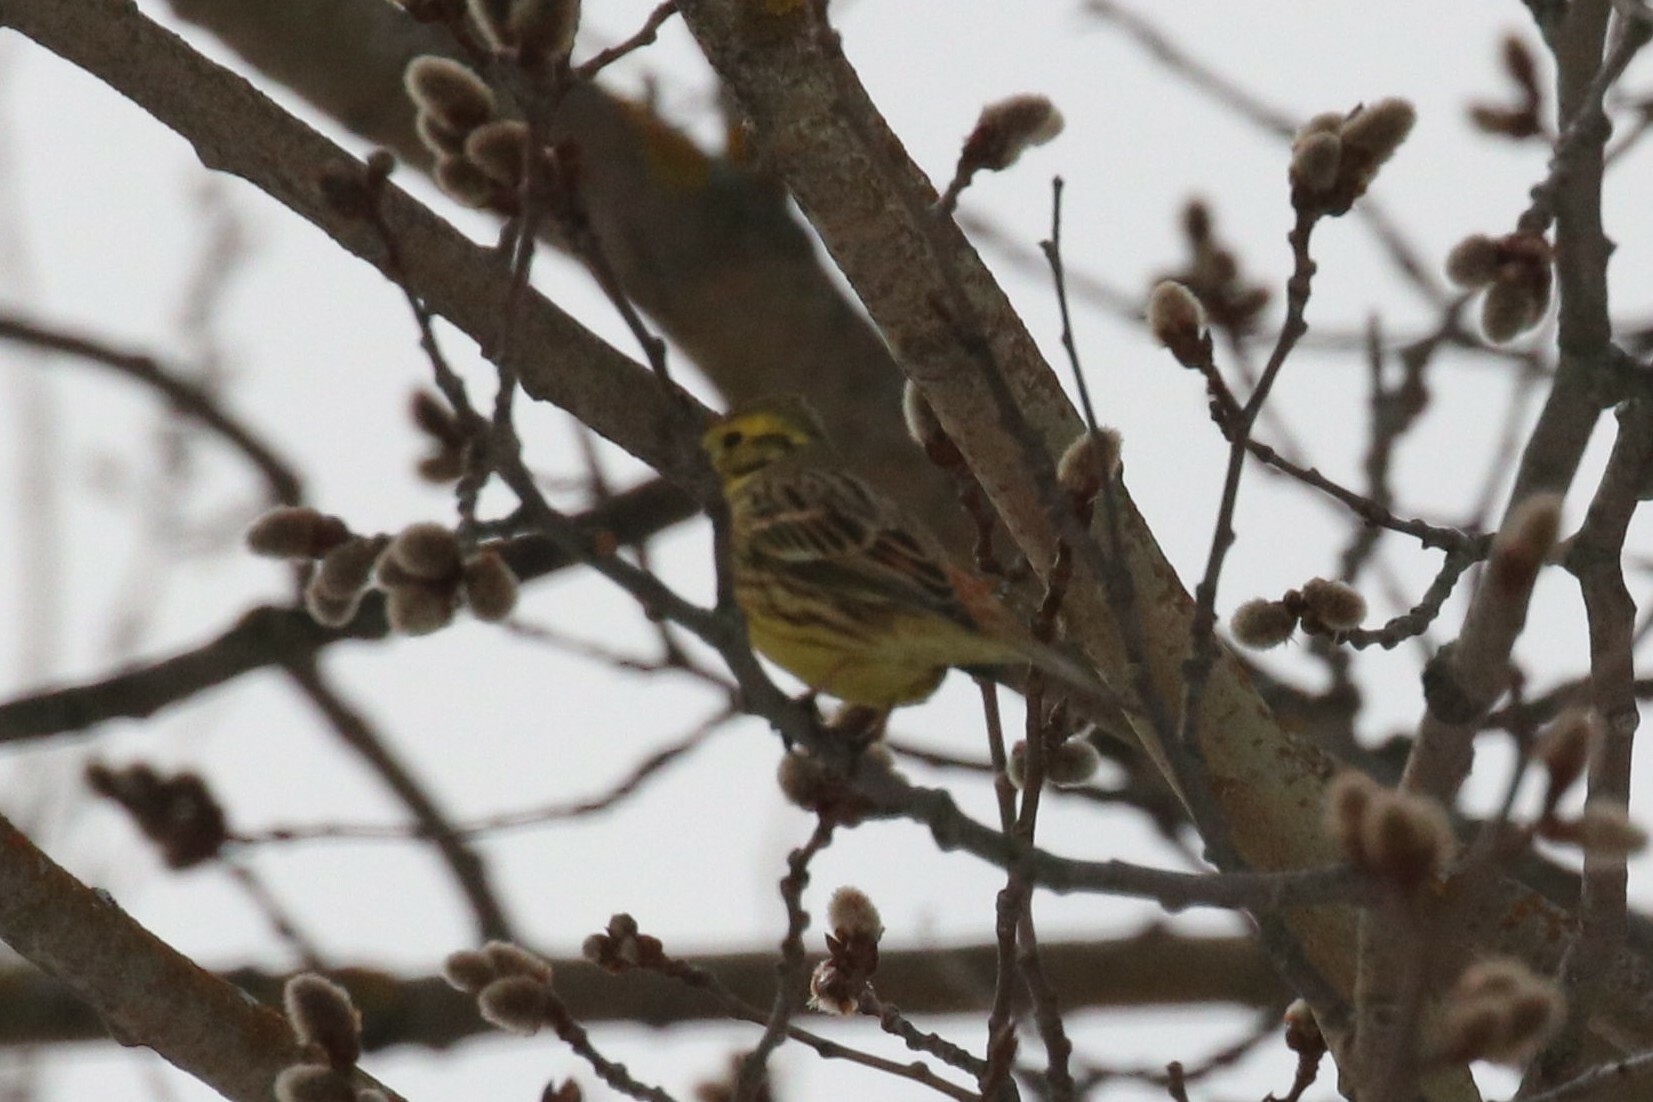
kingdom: Animalia
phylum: Chordata
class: Aves
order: Passeriformes
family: Emberizidae
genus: Emberiza
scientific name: Emberiza citrinella
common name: Yellowhammer
